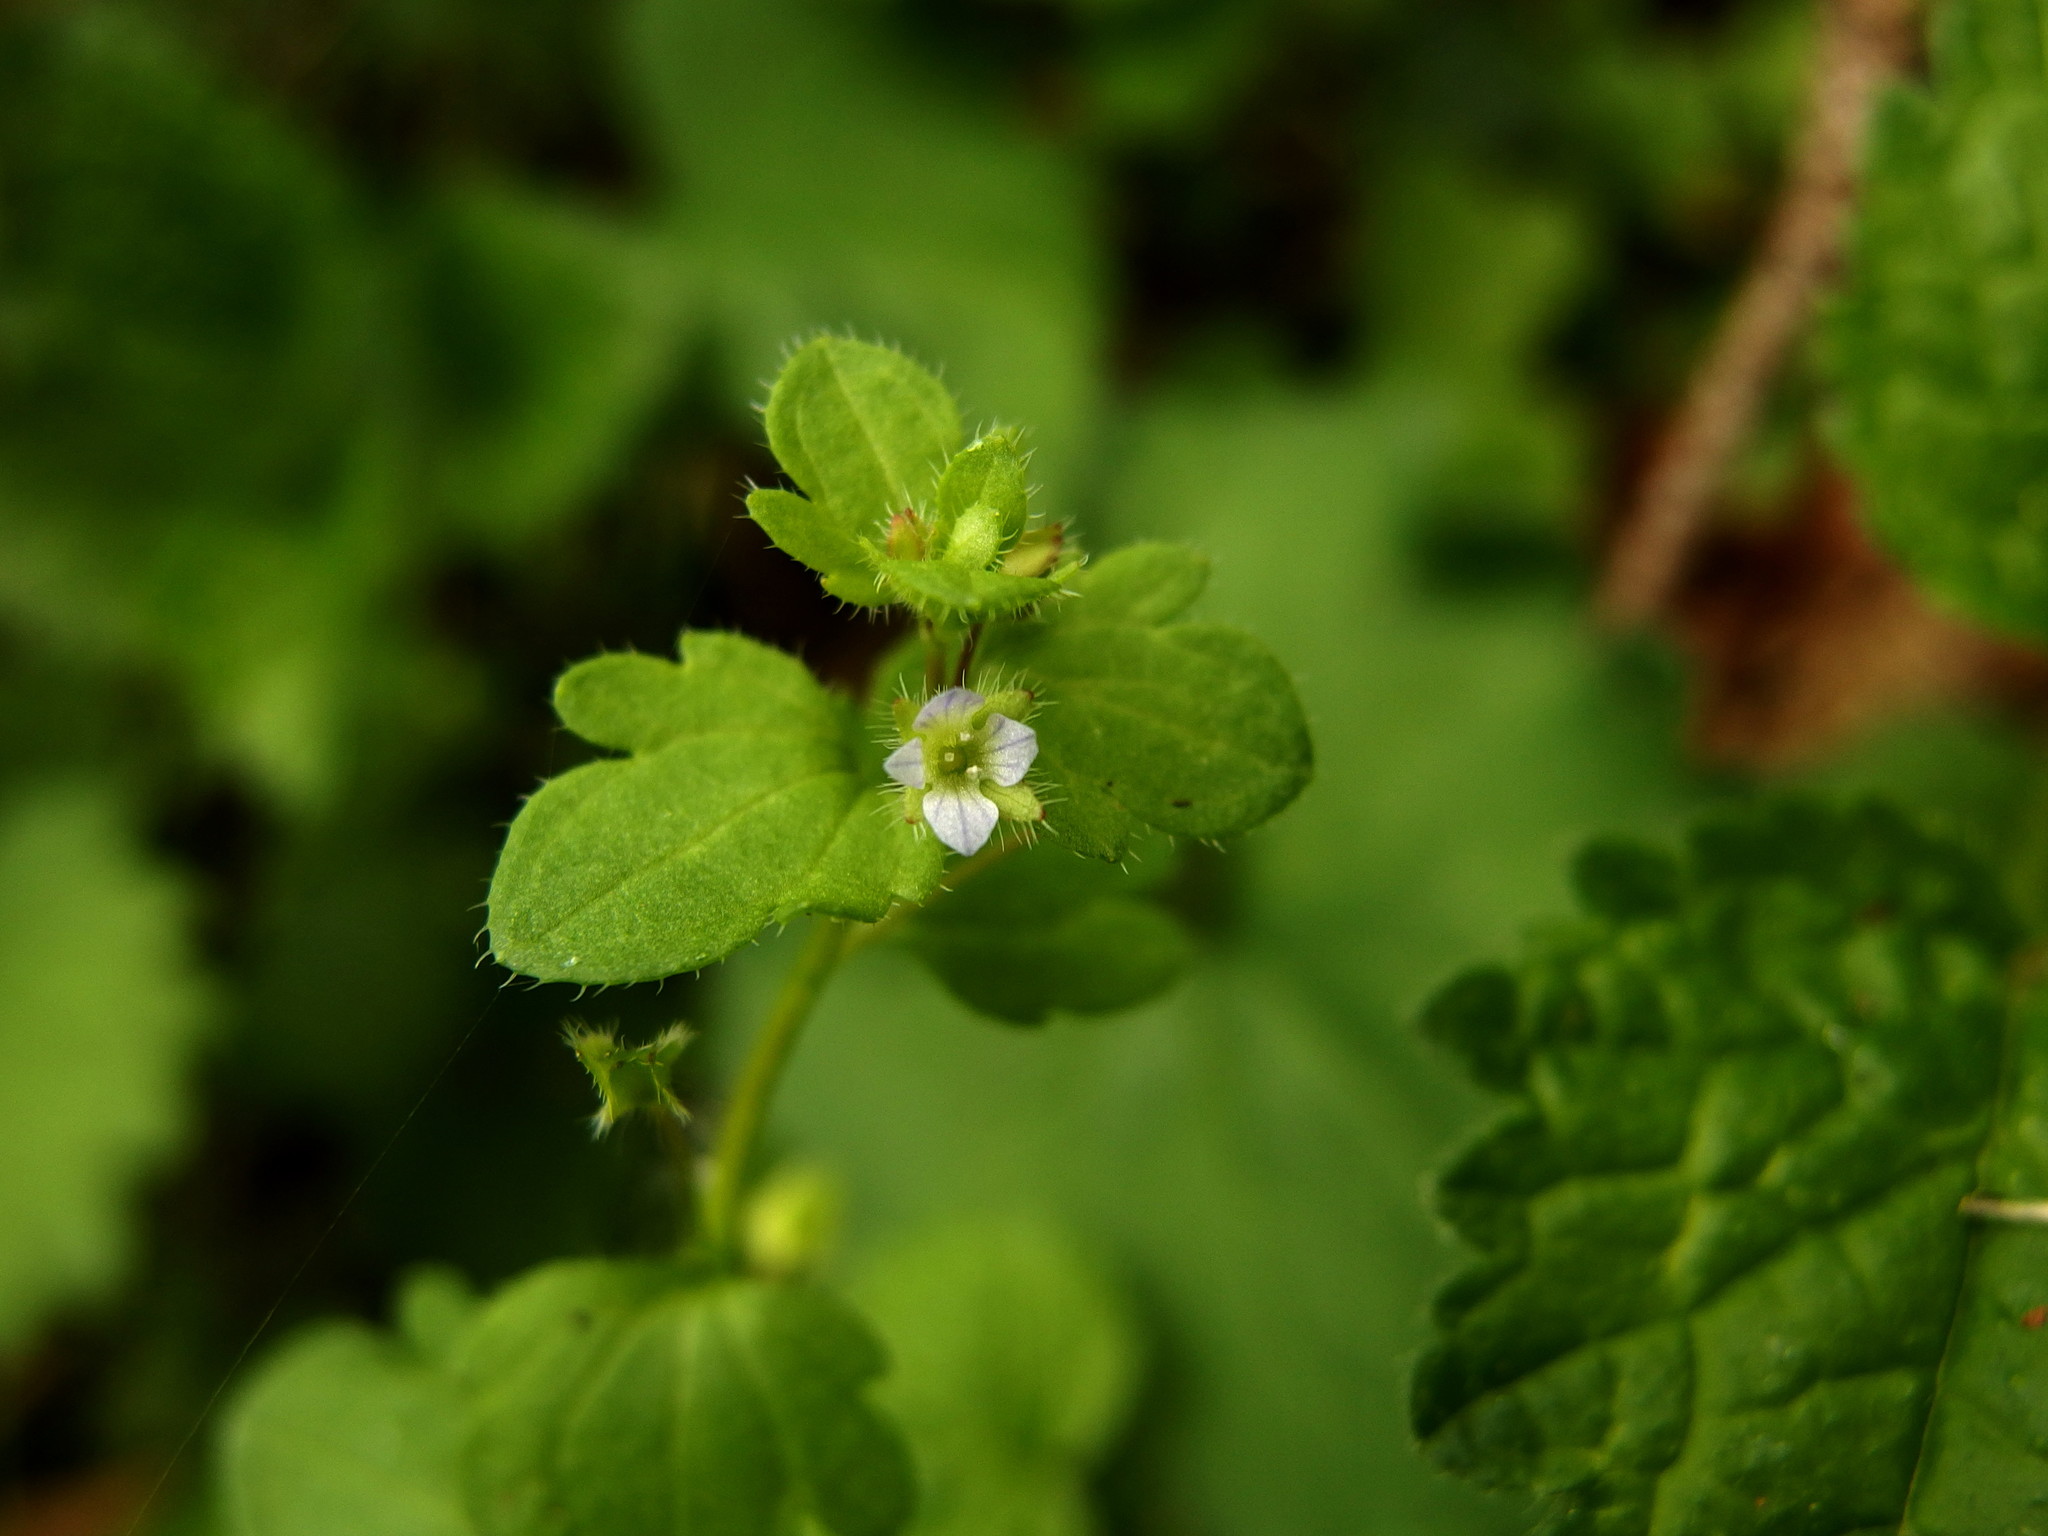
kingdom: Plantae
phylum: Tracheophyta
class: Magnoliopsida
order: Lamiales
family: Plantaginaceae
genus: Veronica
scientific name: Veronica hederifolia
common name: Ivy-leaved speedwell
